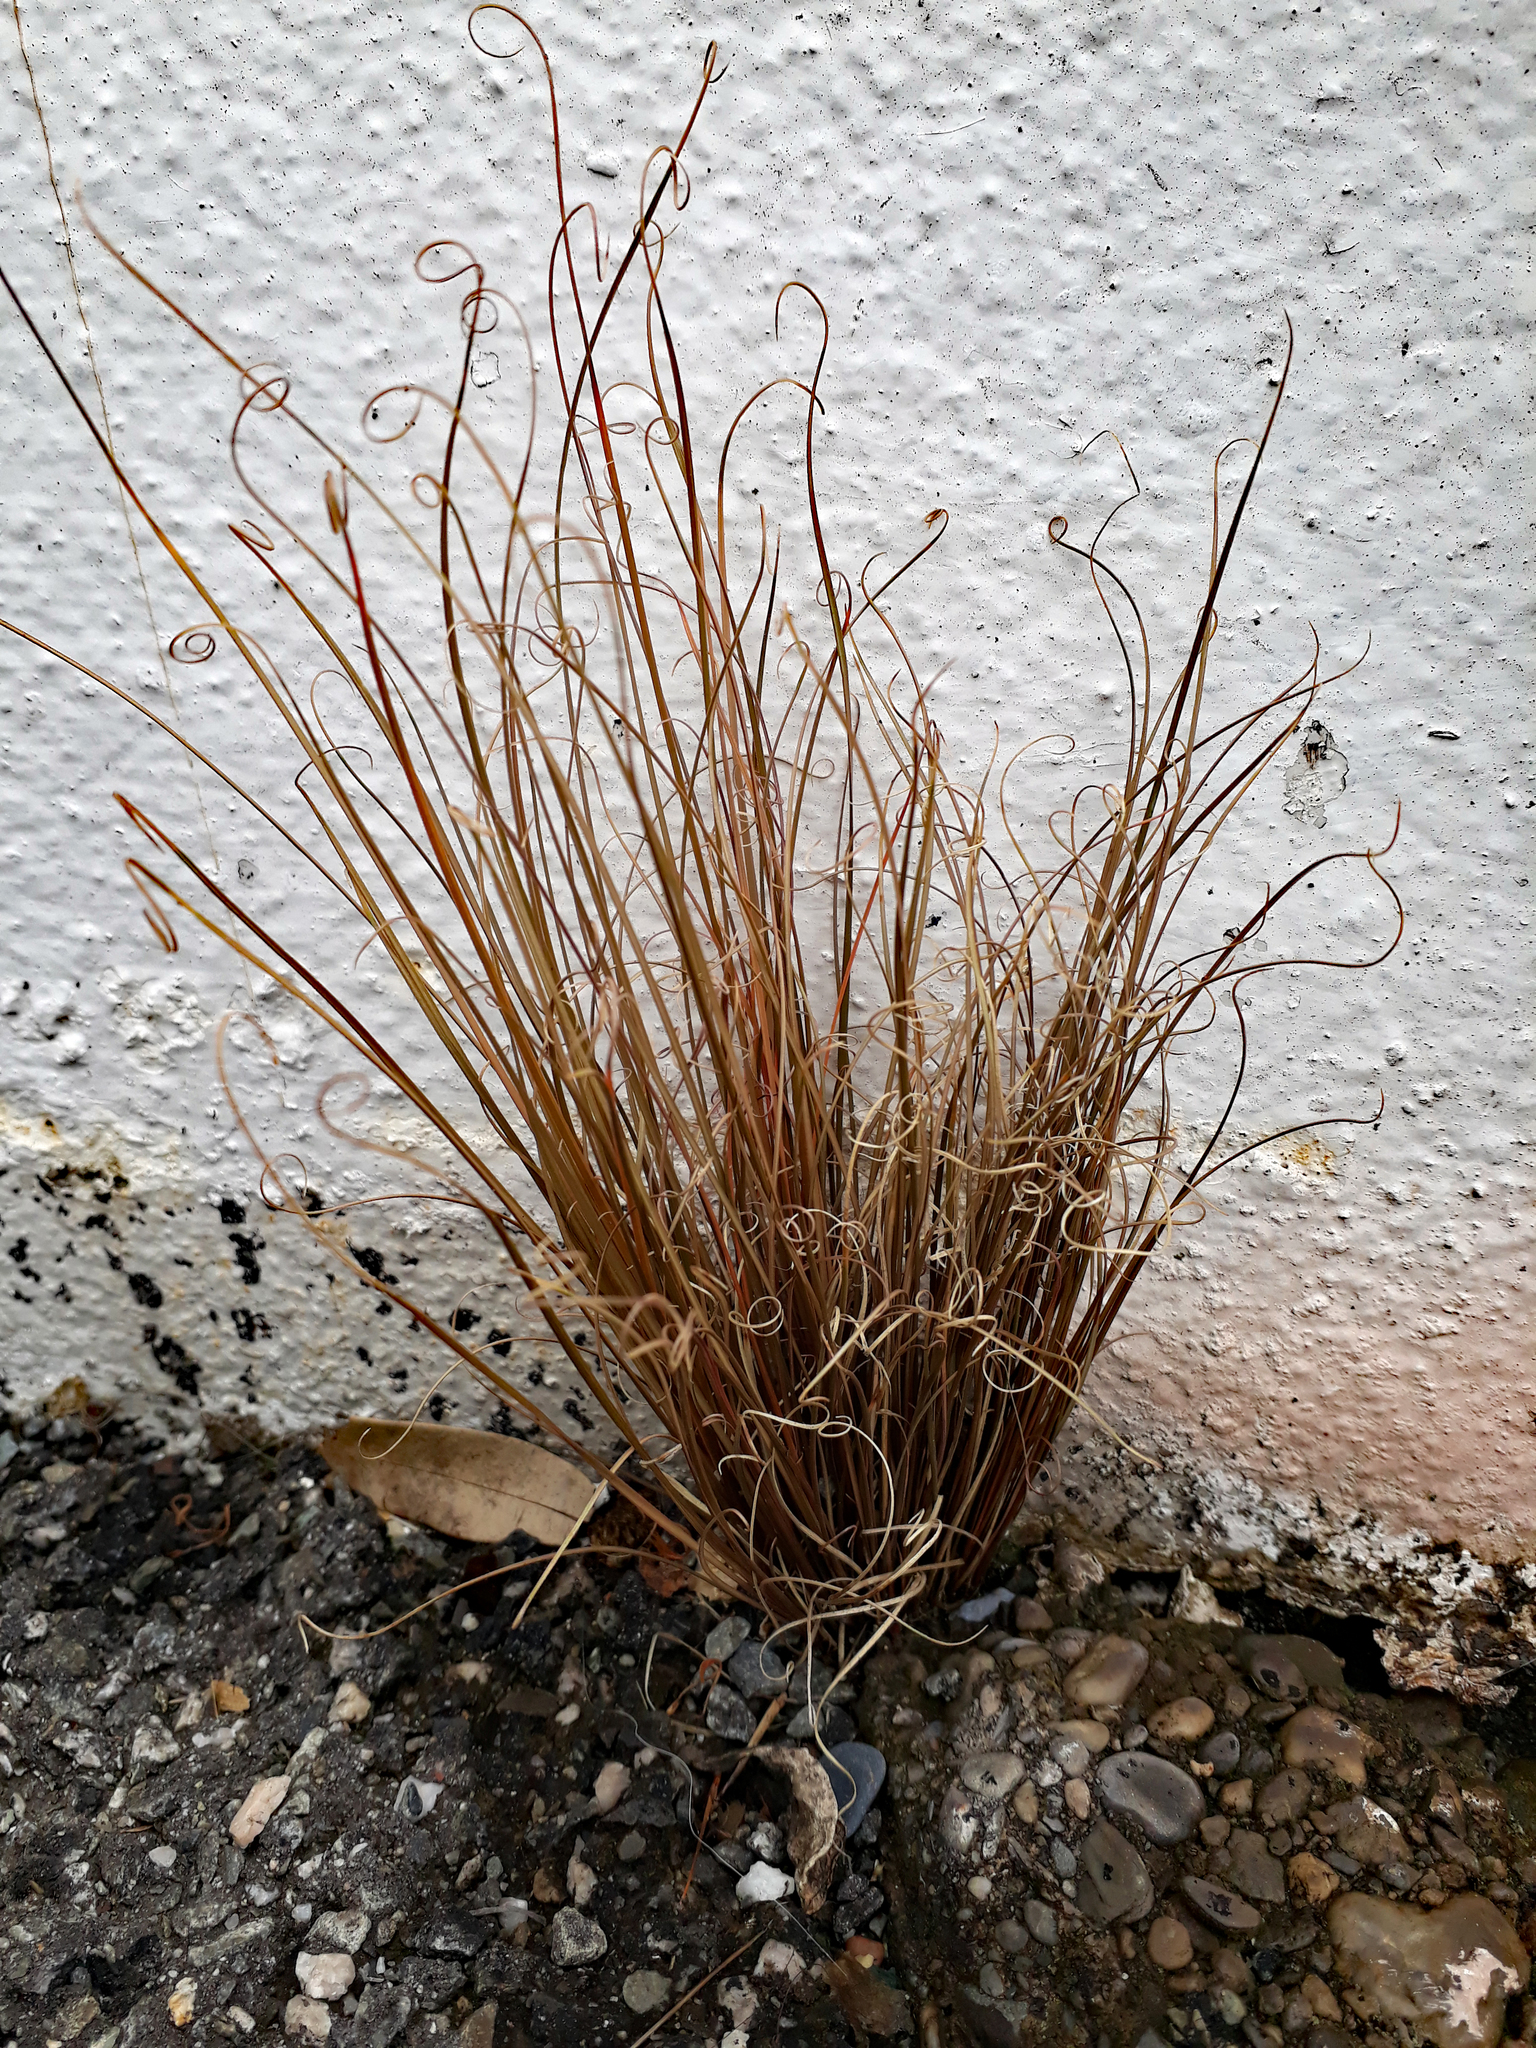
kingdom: Plantae
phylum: Tracheophyta
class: Liliopsida
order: Poales
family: Cyperaceae
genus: Carex
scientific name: Carex buchananii
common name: Leatherleaf sedge
